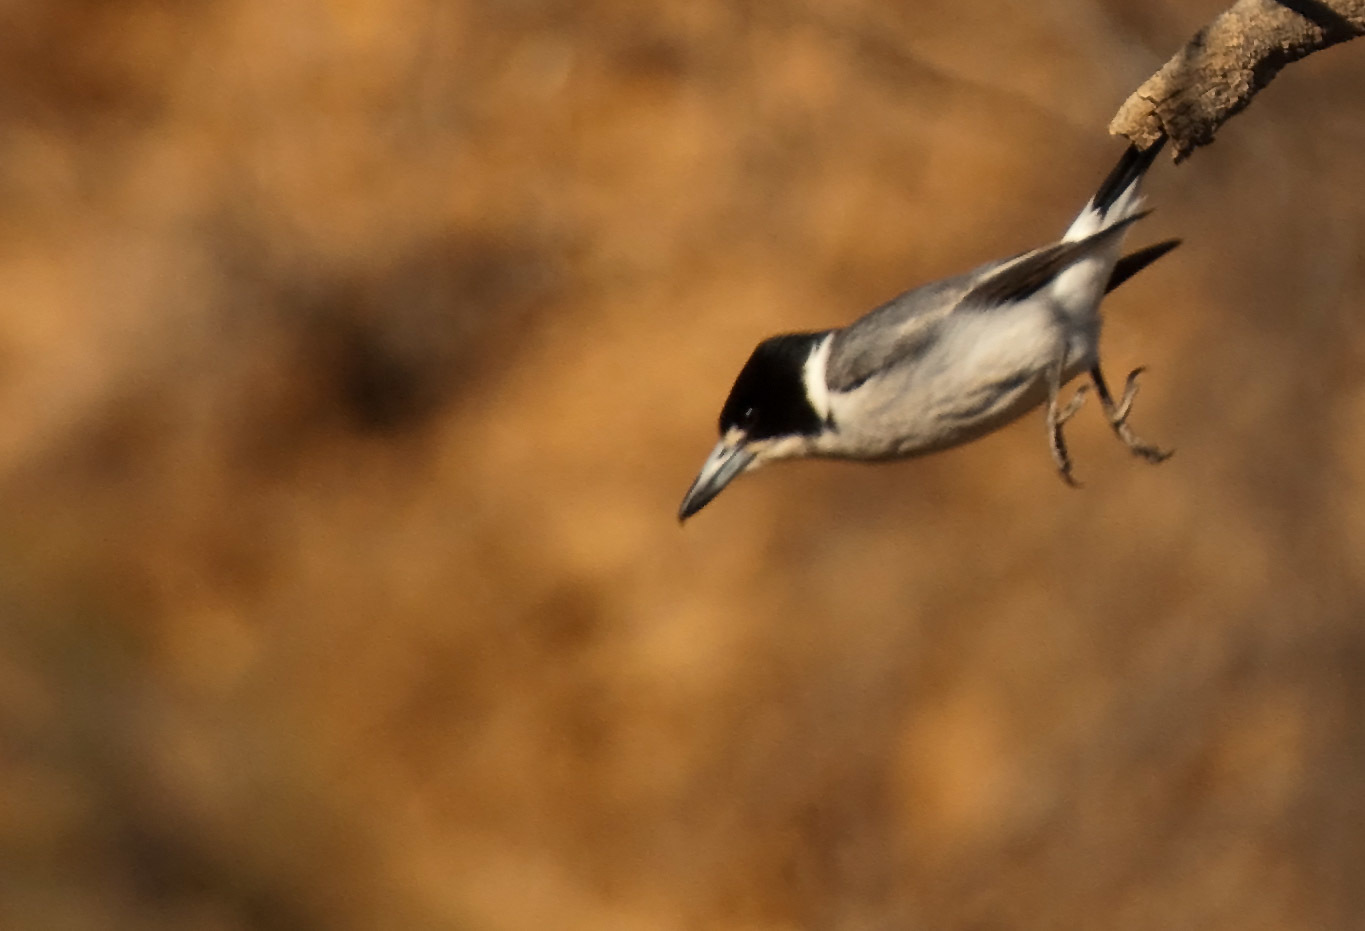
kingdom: Animalia
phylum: Chordata
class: Aves
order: Passeriformes
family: Cracticidae
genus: Cracticus
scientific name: Cracticus torquatus
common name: Grey butcherbird
